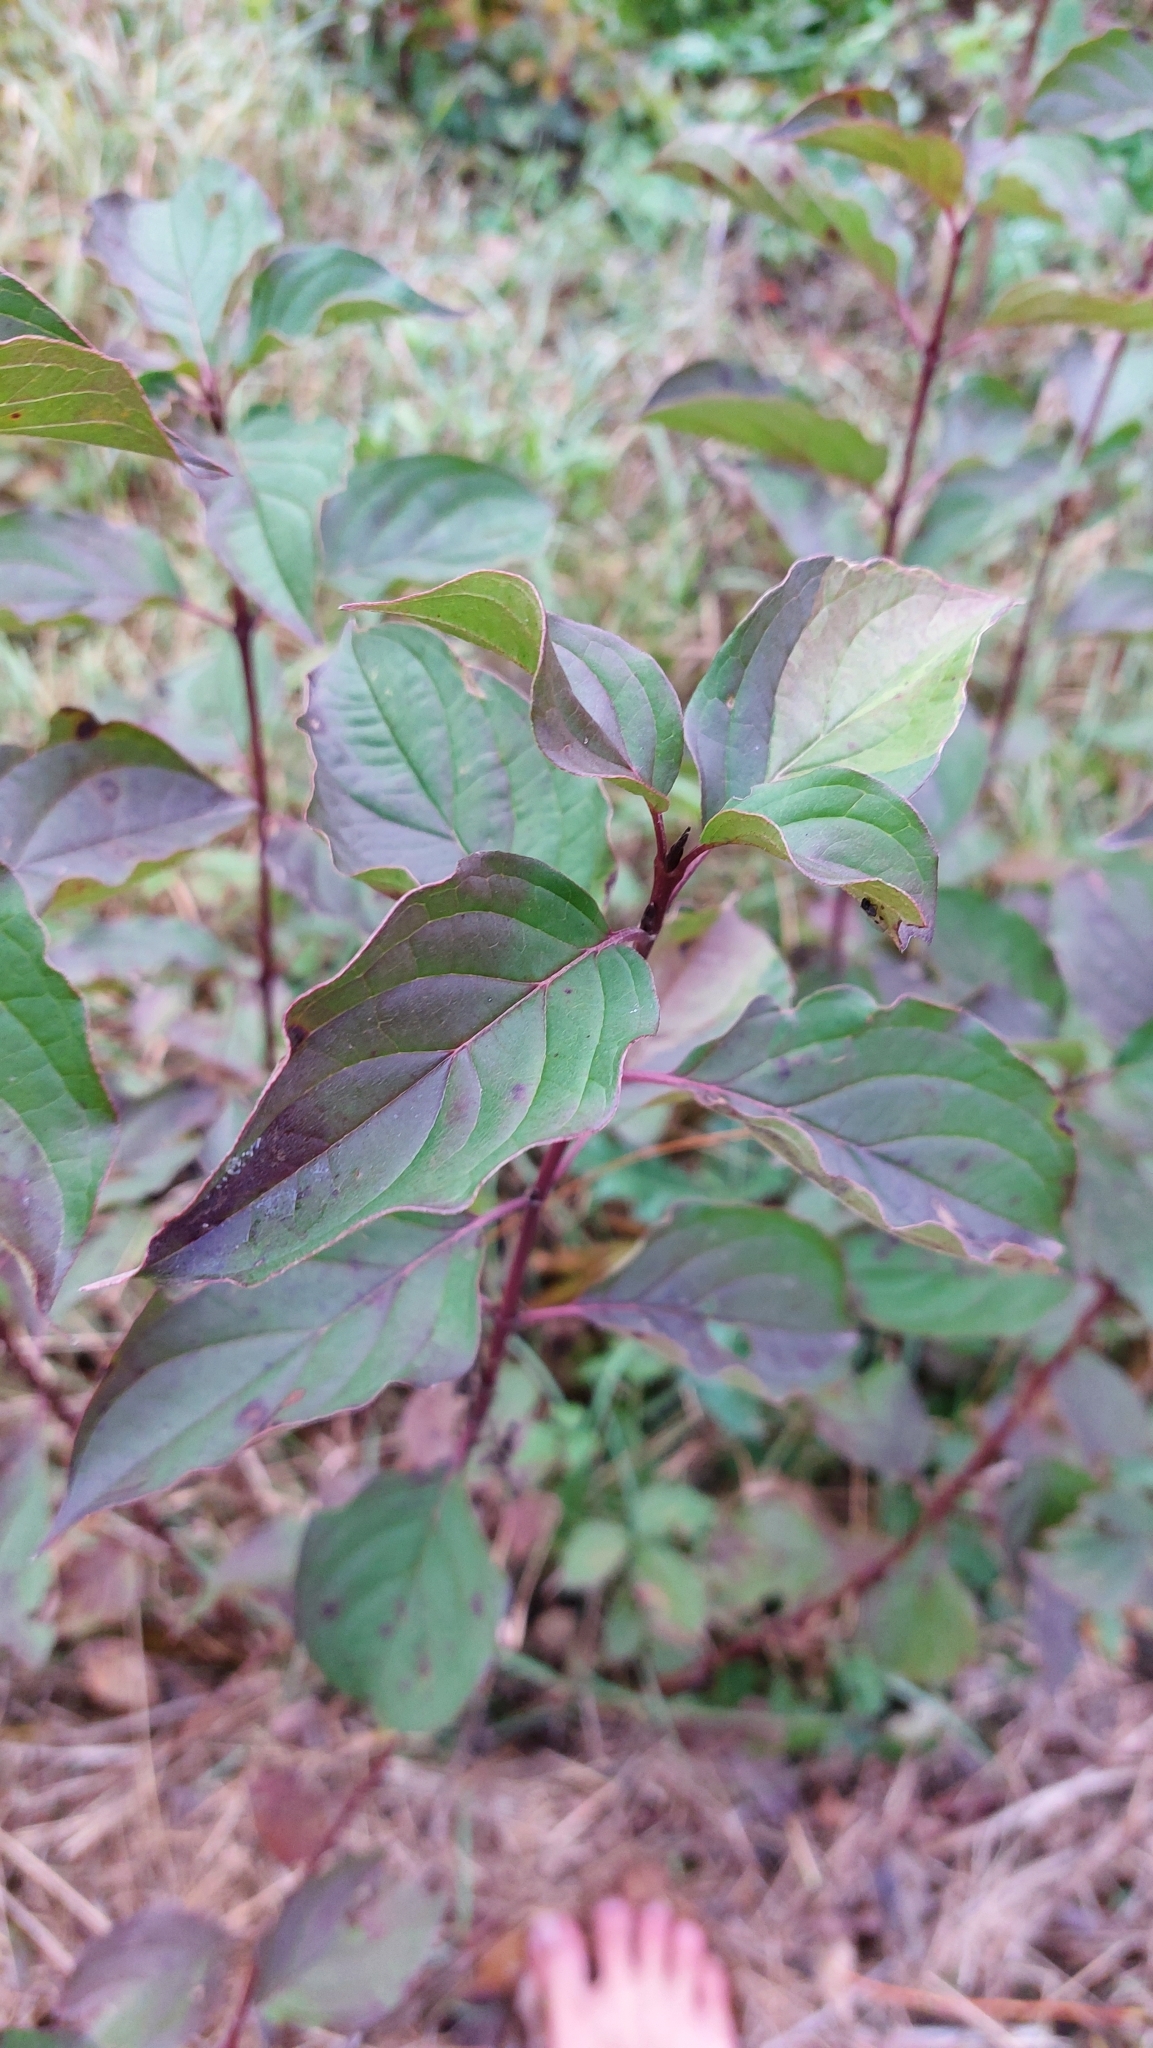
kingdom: Plantae
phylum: Tracheophyta
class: Magnoliopsida
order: Cornales
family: Cornaceae
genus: Cornus
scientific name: Cornus sanguinea
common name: Dogwood
